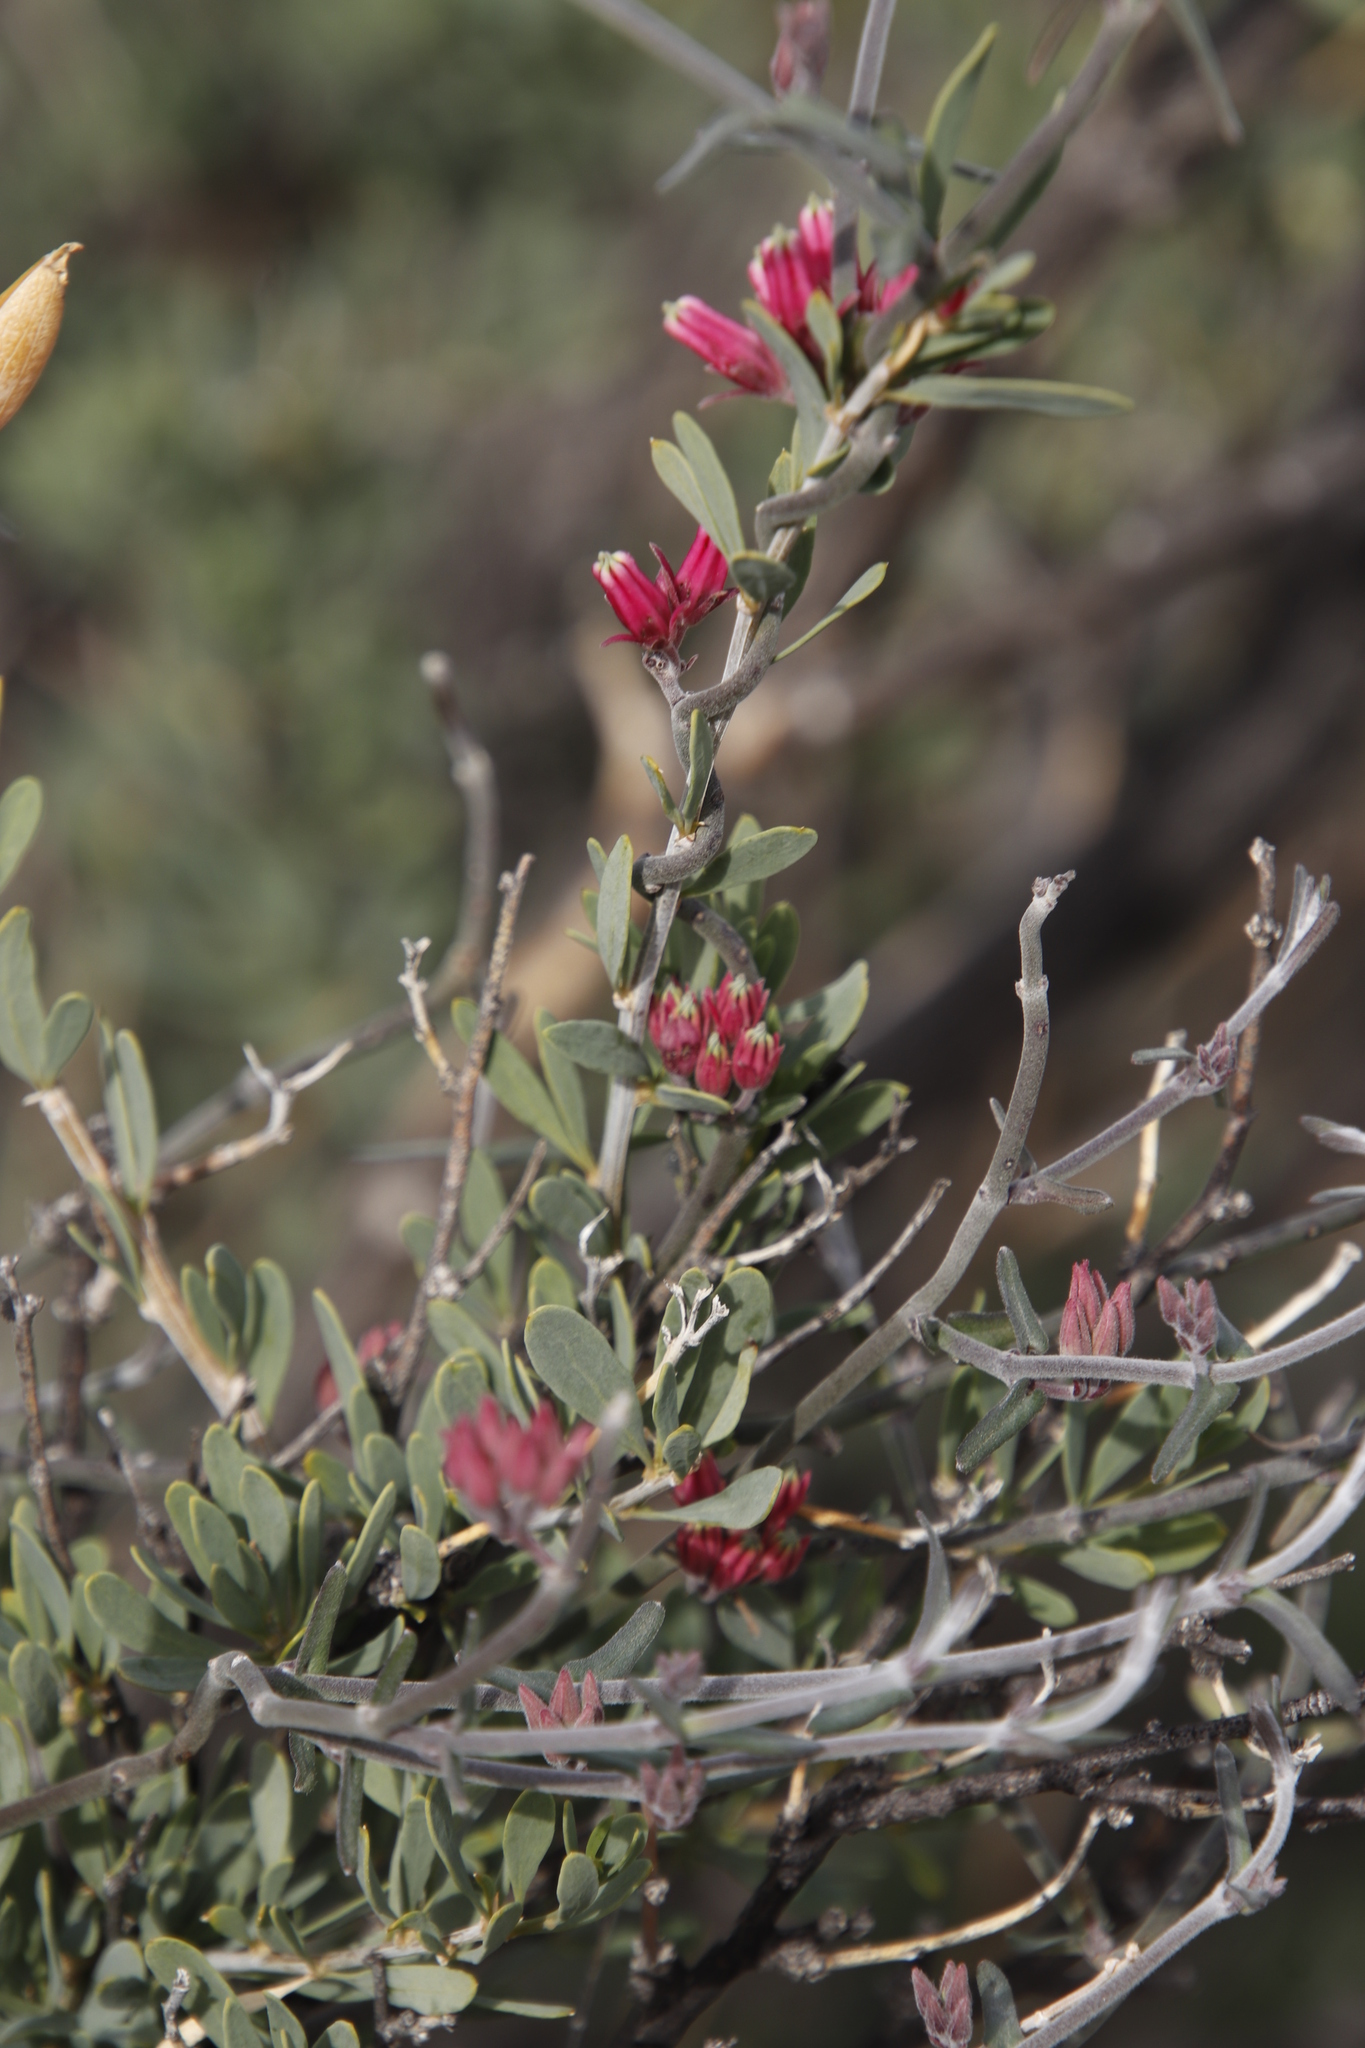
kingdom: Plantae
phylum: Tracheophyta
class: Magnoliopsida
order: Gentianales
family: Apocynaceae
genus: Microloma
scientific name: Microloma sagittatum
